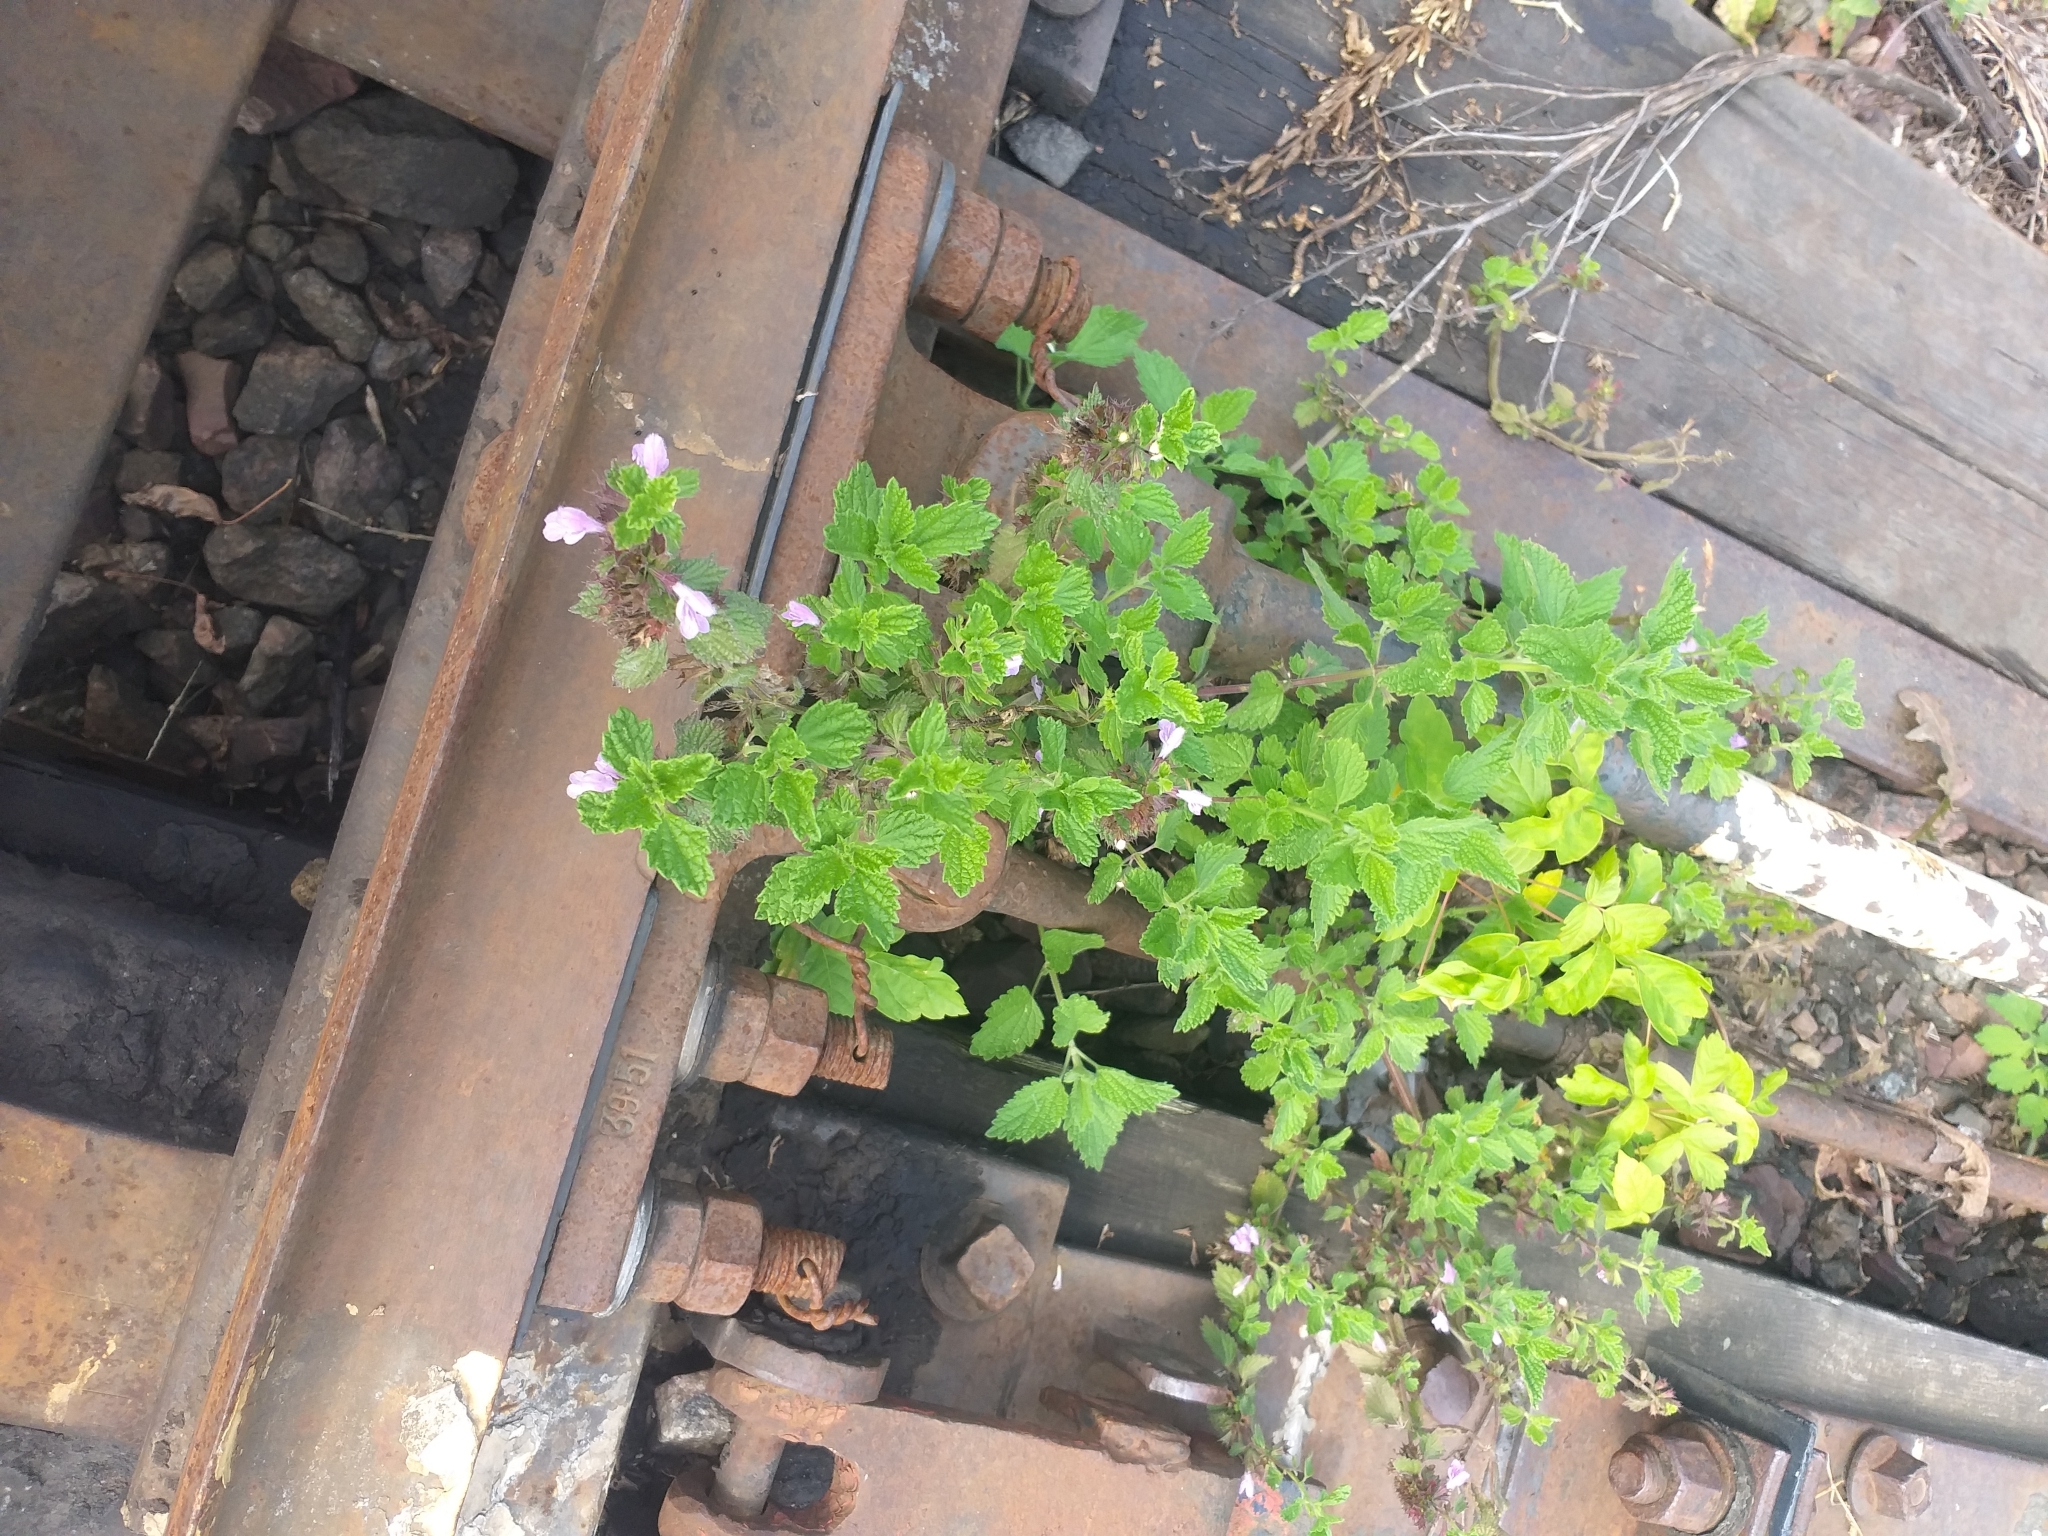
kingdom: Plantae
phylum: Tracheophyta
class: Magnoliopsida
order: Lamiales
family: Lamiaceae
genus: Ballota
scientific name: Ballota nigra
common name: Black horehound
